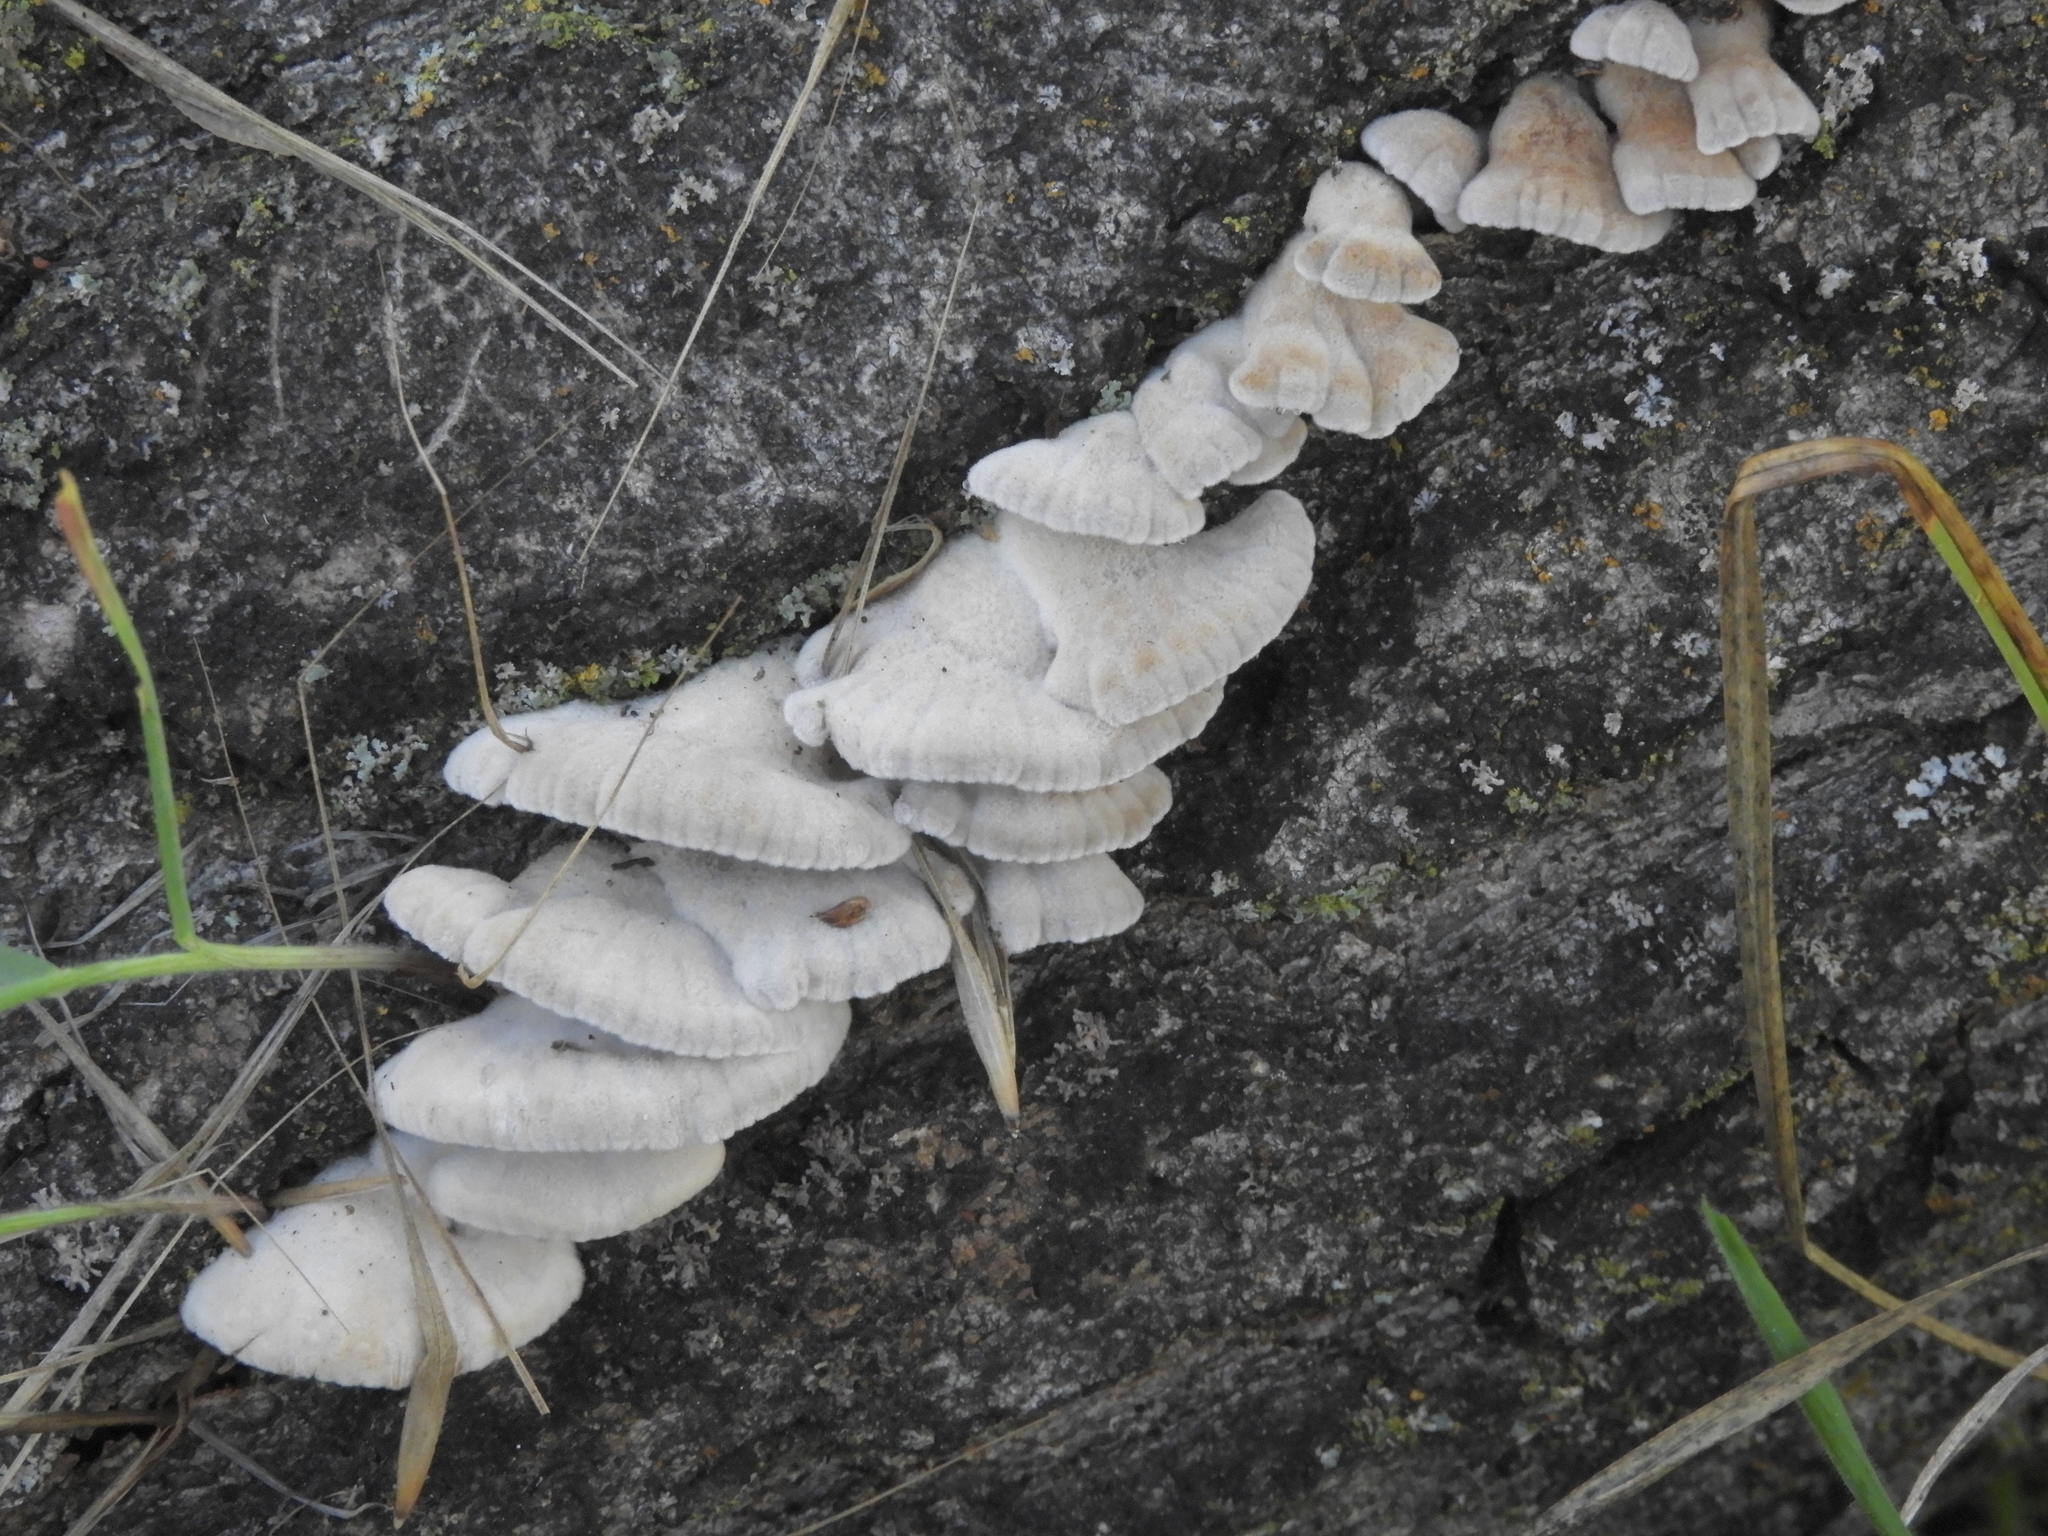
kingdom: Fungi
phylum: Basidiomycota
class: Agaricomycetes
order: Agaricales
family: Schizophyllaceae
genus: Schizophyllum
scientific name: Schizophyllum commune
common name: Common porecrust
